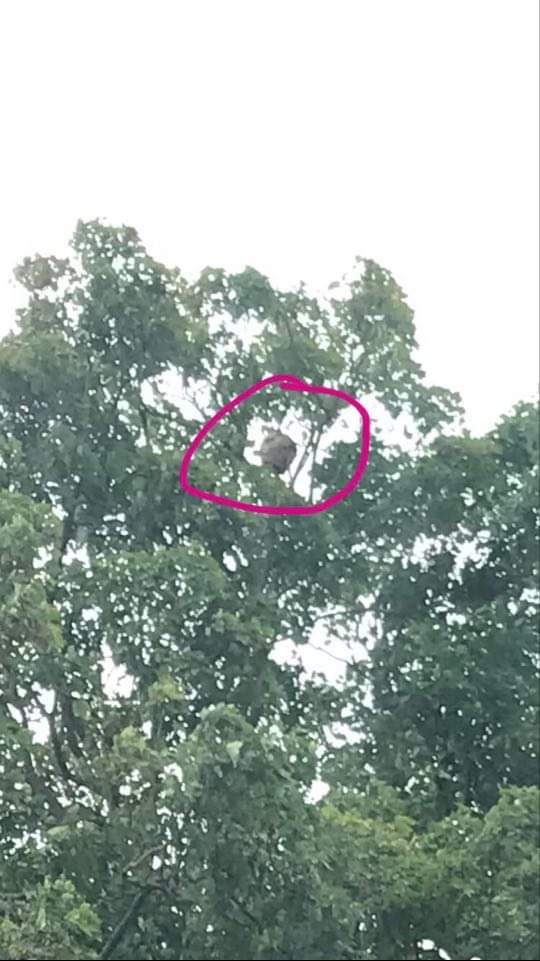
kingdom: Animalia
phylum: Arthropoda
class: Insecta
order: Hymenoptera
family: Vespidae
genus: Vespa
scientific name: Vespa velutina
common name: Asian hornet
